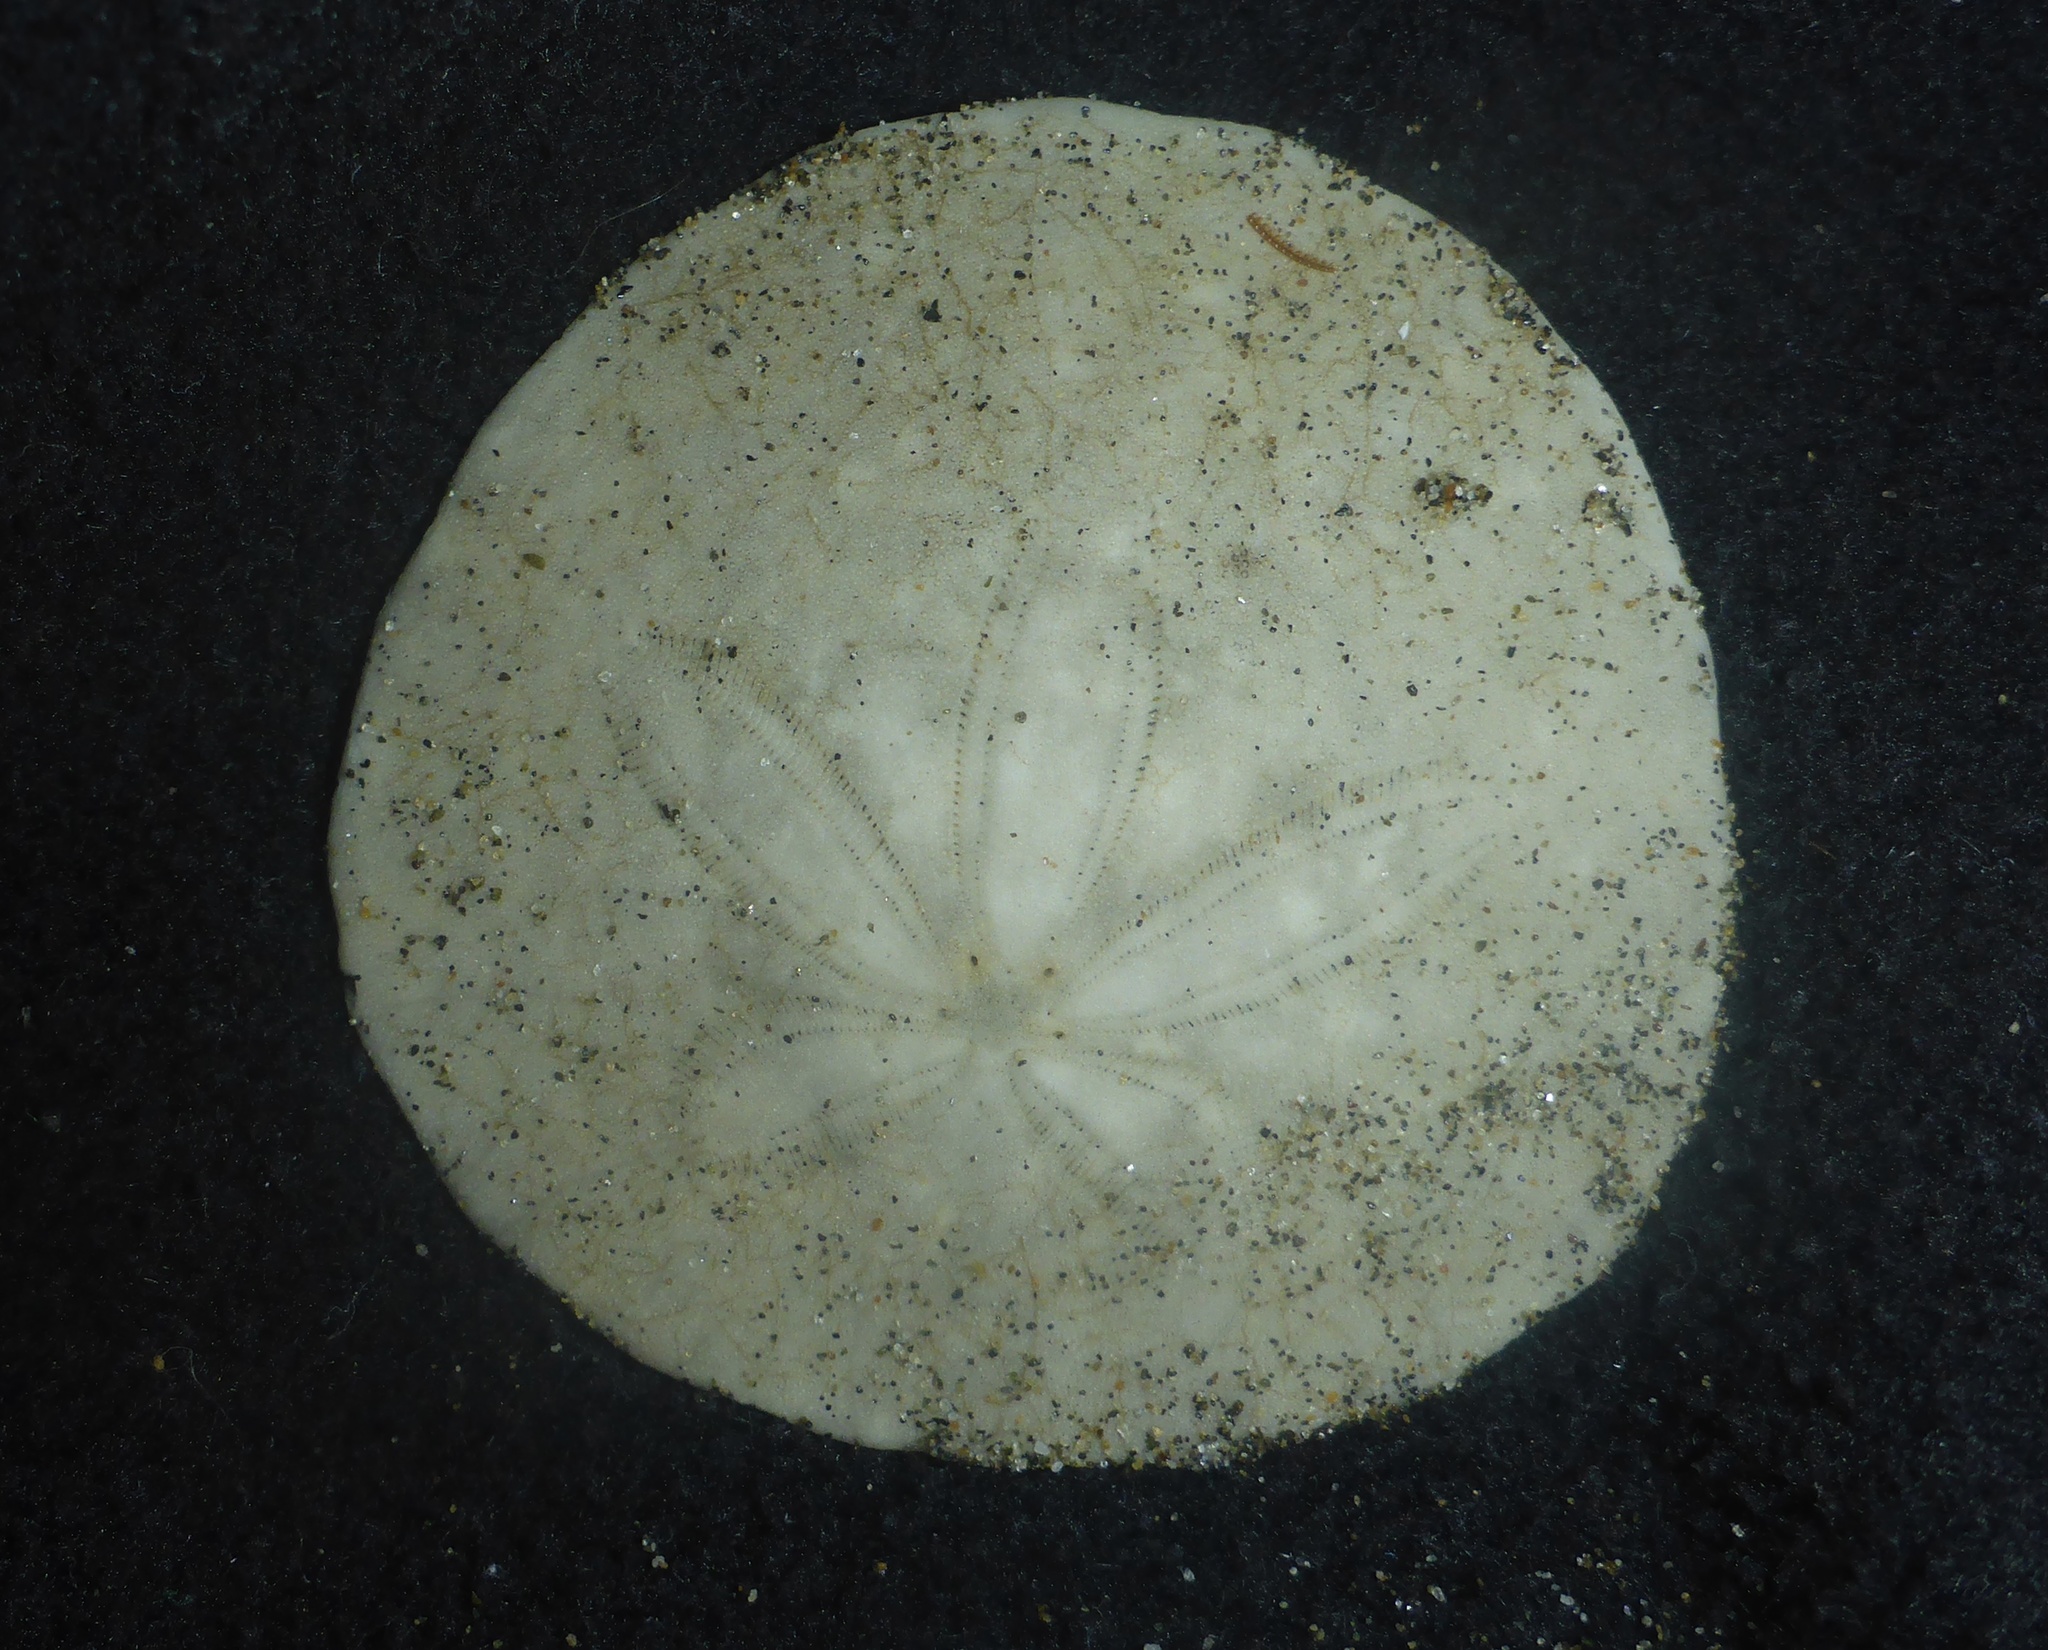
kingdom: Animalia
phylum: Echinodermata
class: Echinoidea
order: Echinolampadacea
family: Dendrasteridae
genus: Dendraster
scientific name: Dendraster excentricus
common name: Eccentric sand dollar sea urchin
